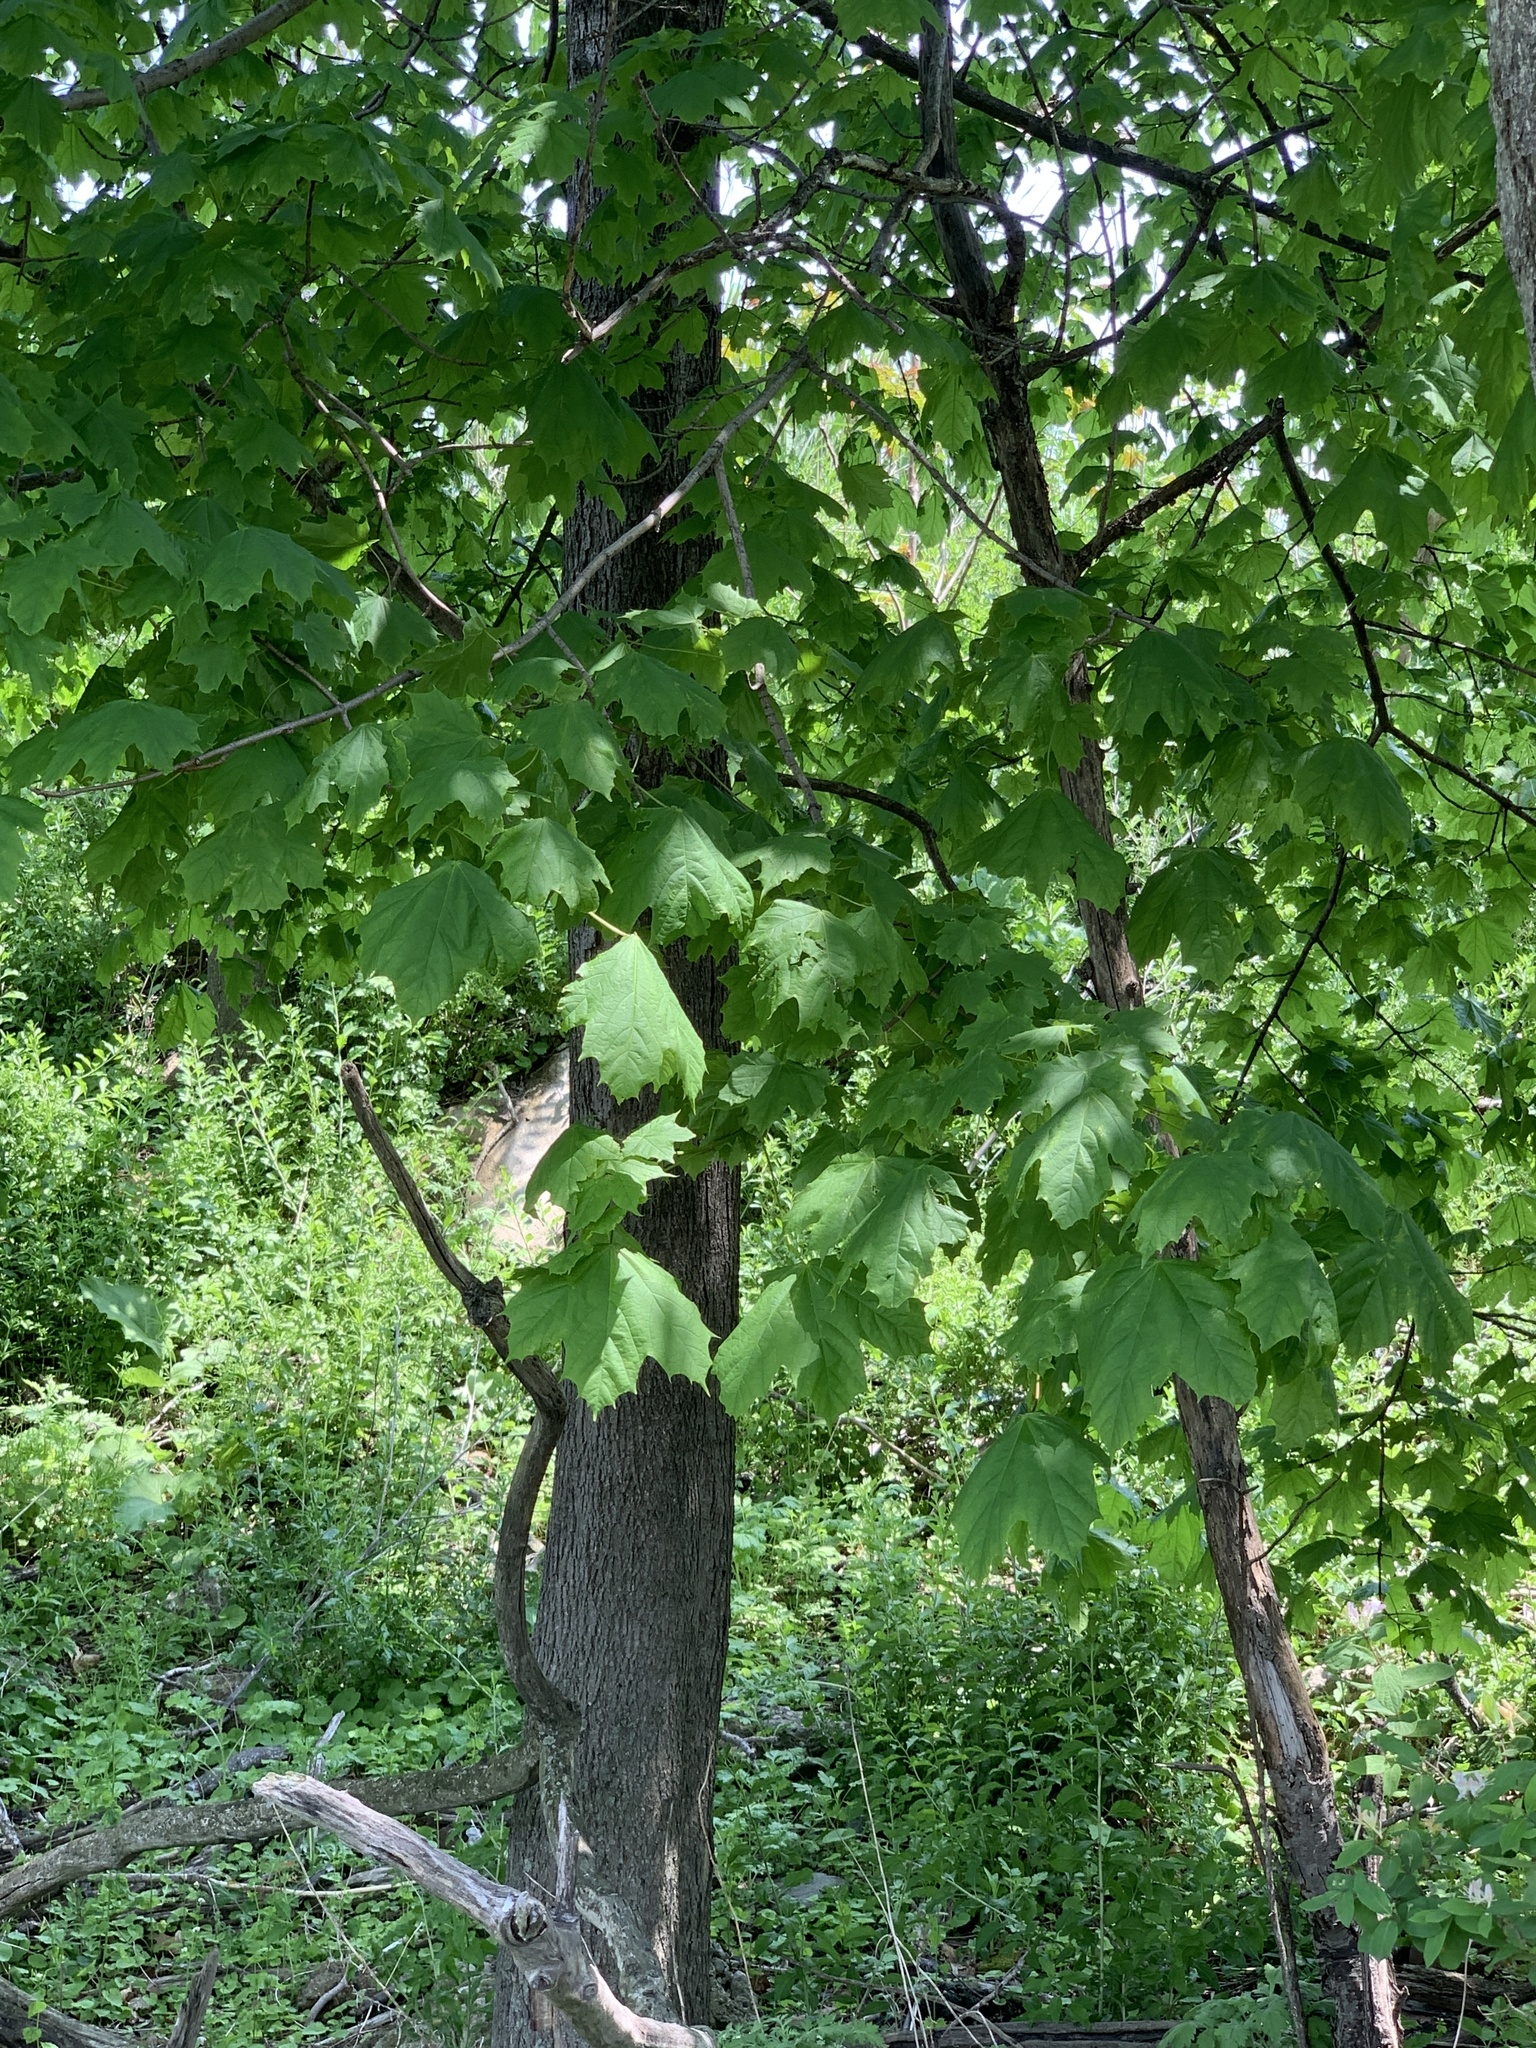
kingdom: Plantae
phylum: Tracheophyta
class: Magnoliopsida
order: Sapindales
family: Sapindaceae
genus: Acer
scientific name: Acer platanoides
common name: Norway maple
